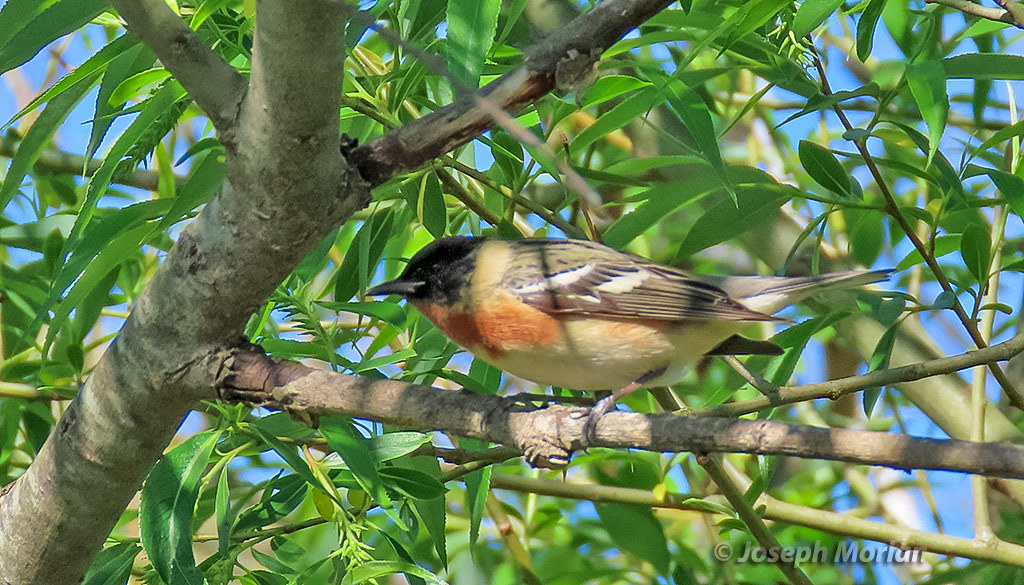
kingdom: Animalia
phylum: Chordata
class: Aves
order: Passeriformes
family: Parulidae
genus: Setophaga
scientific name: Setophaga castanea
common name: Bay-breasted warbler
